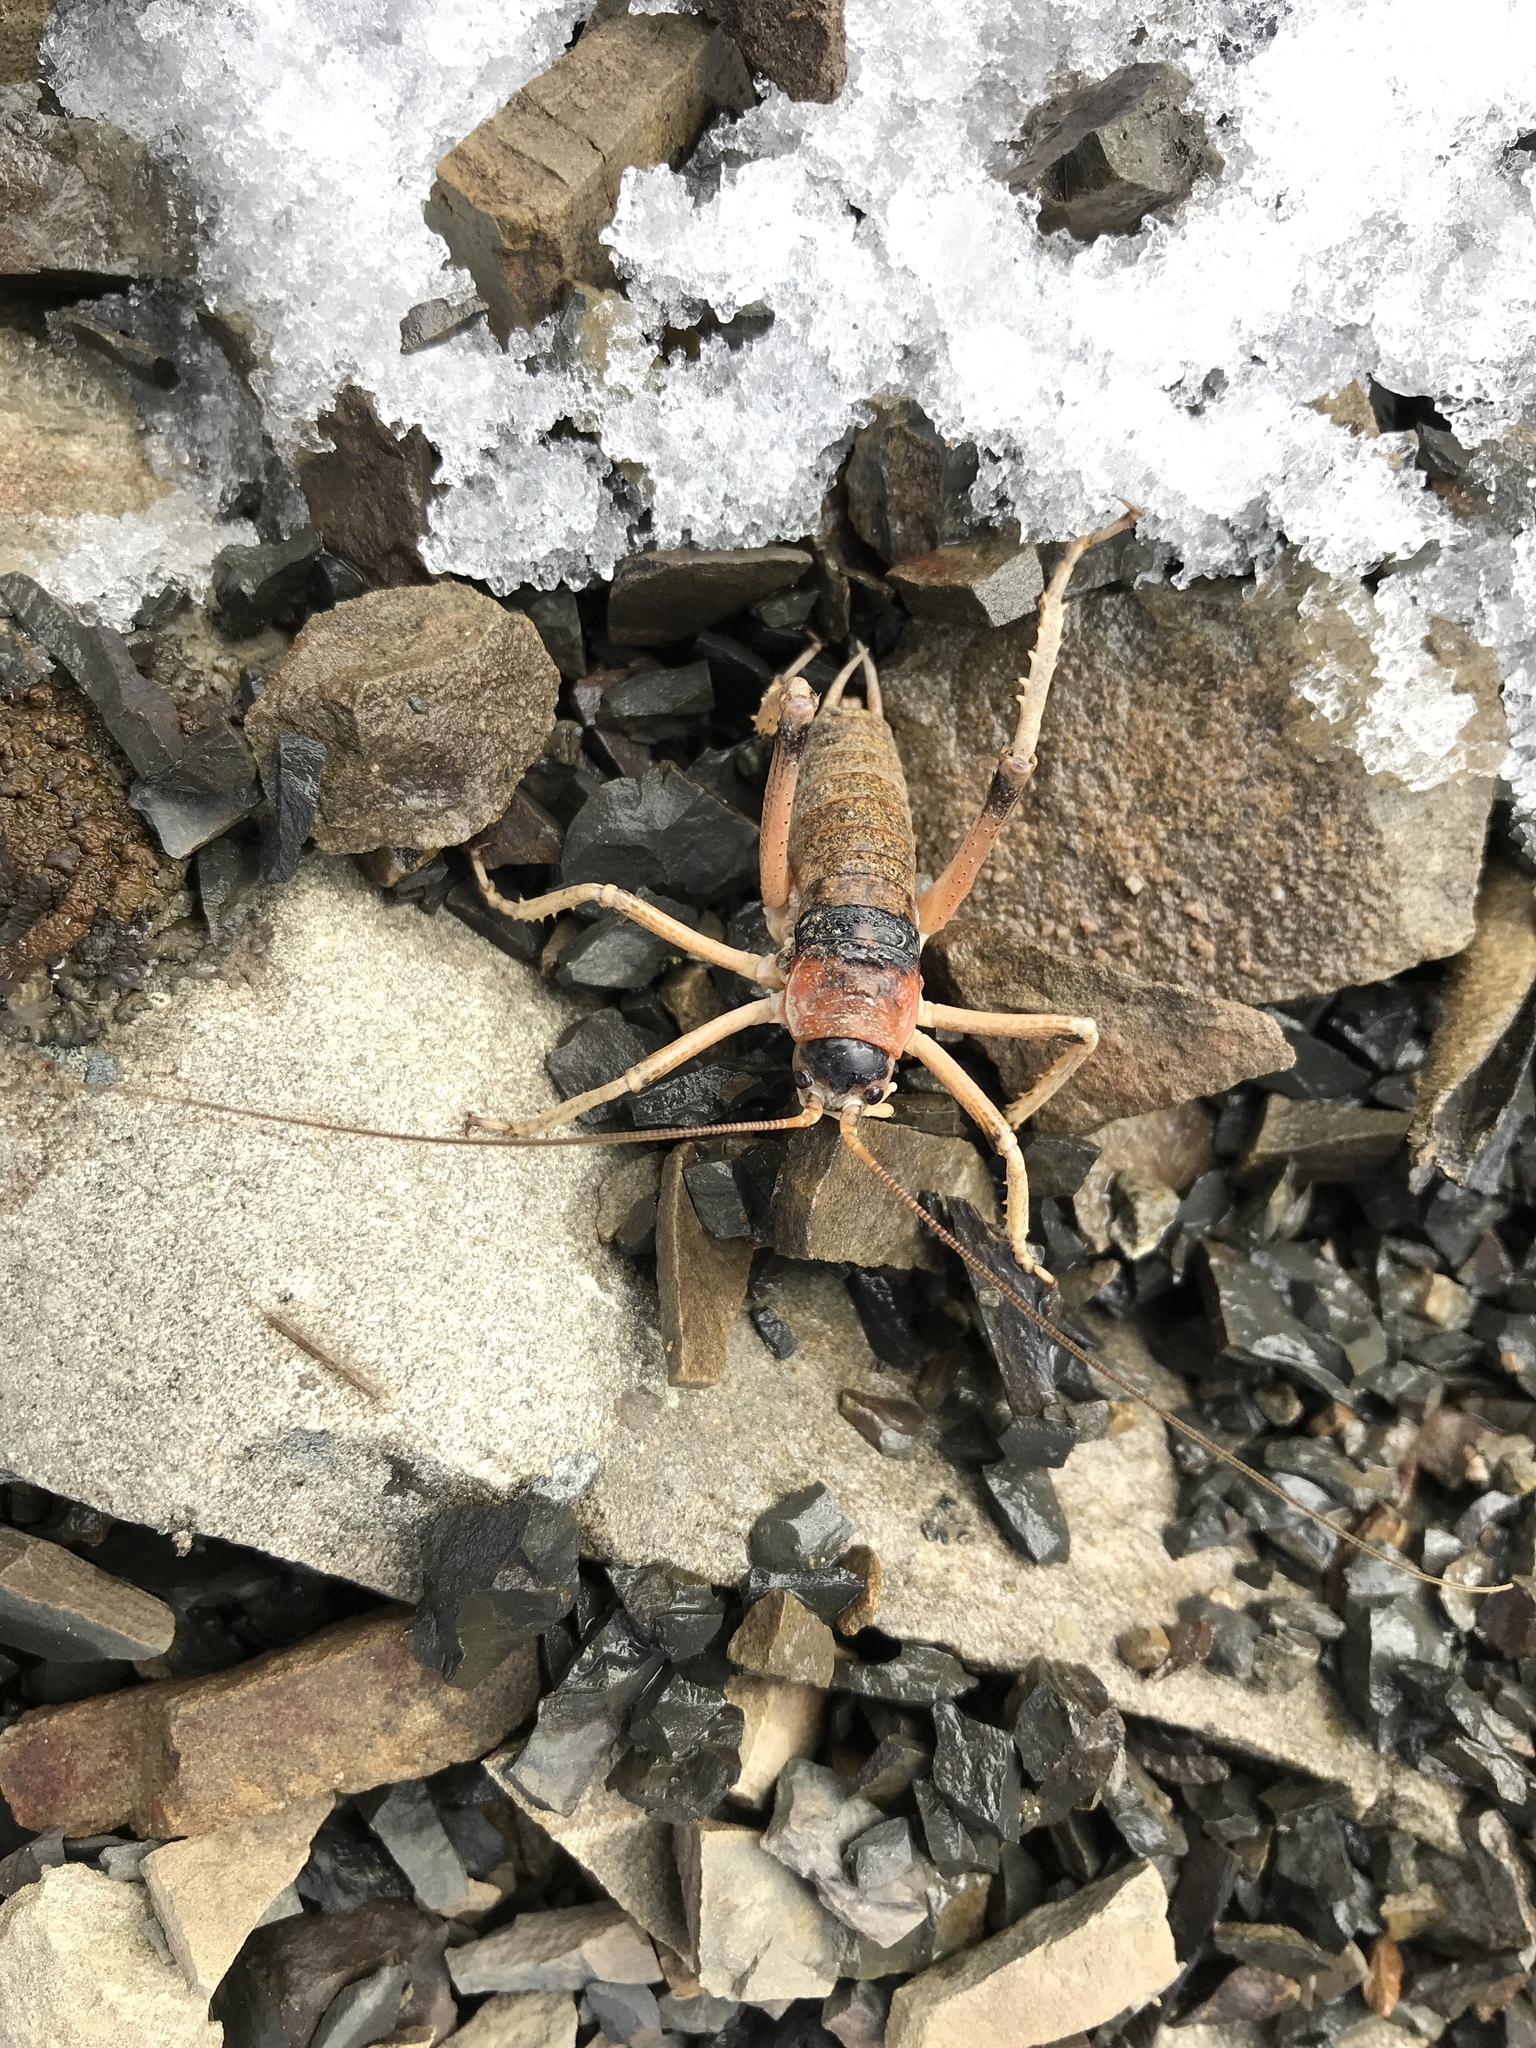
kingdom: Animalia
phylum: Arthropoda
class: Insecta
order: Orthoptera
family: Anostostomatidae
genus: Deinacrida
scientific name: Deinacrida connectens
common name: Scree weta
